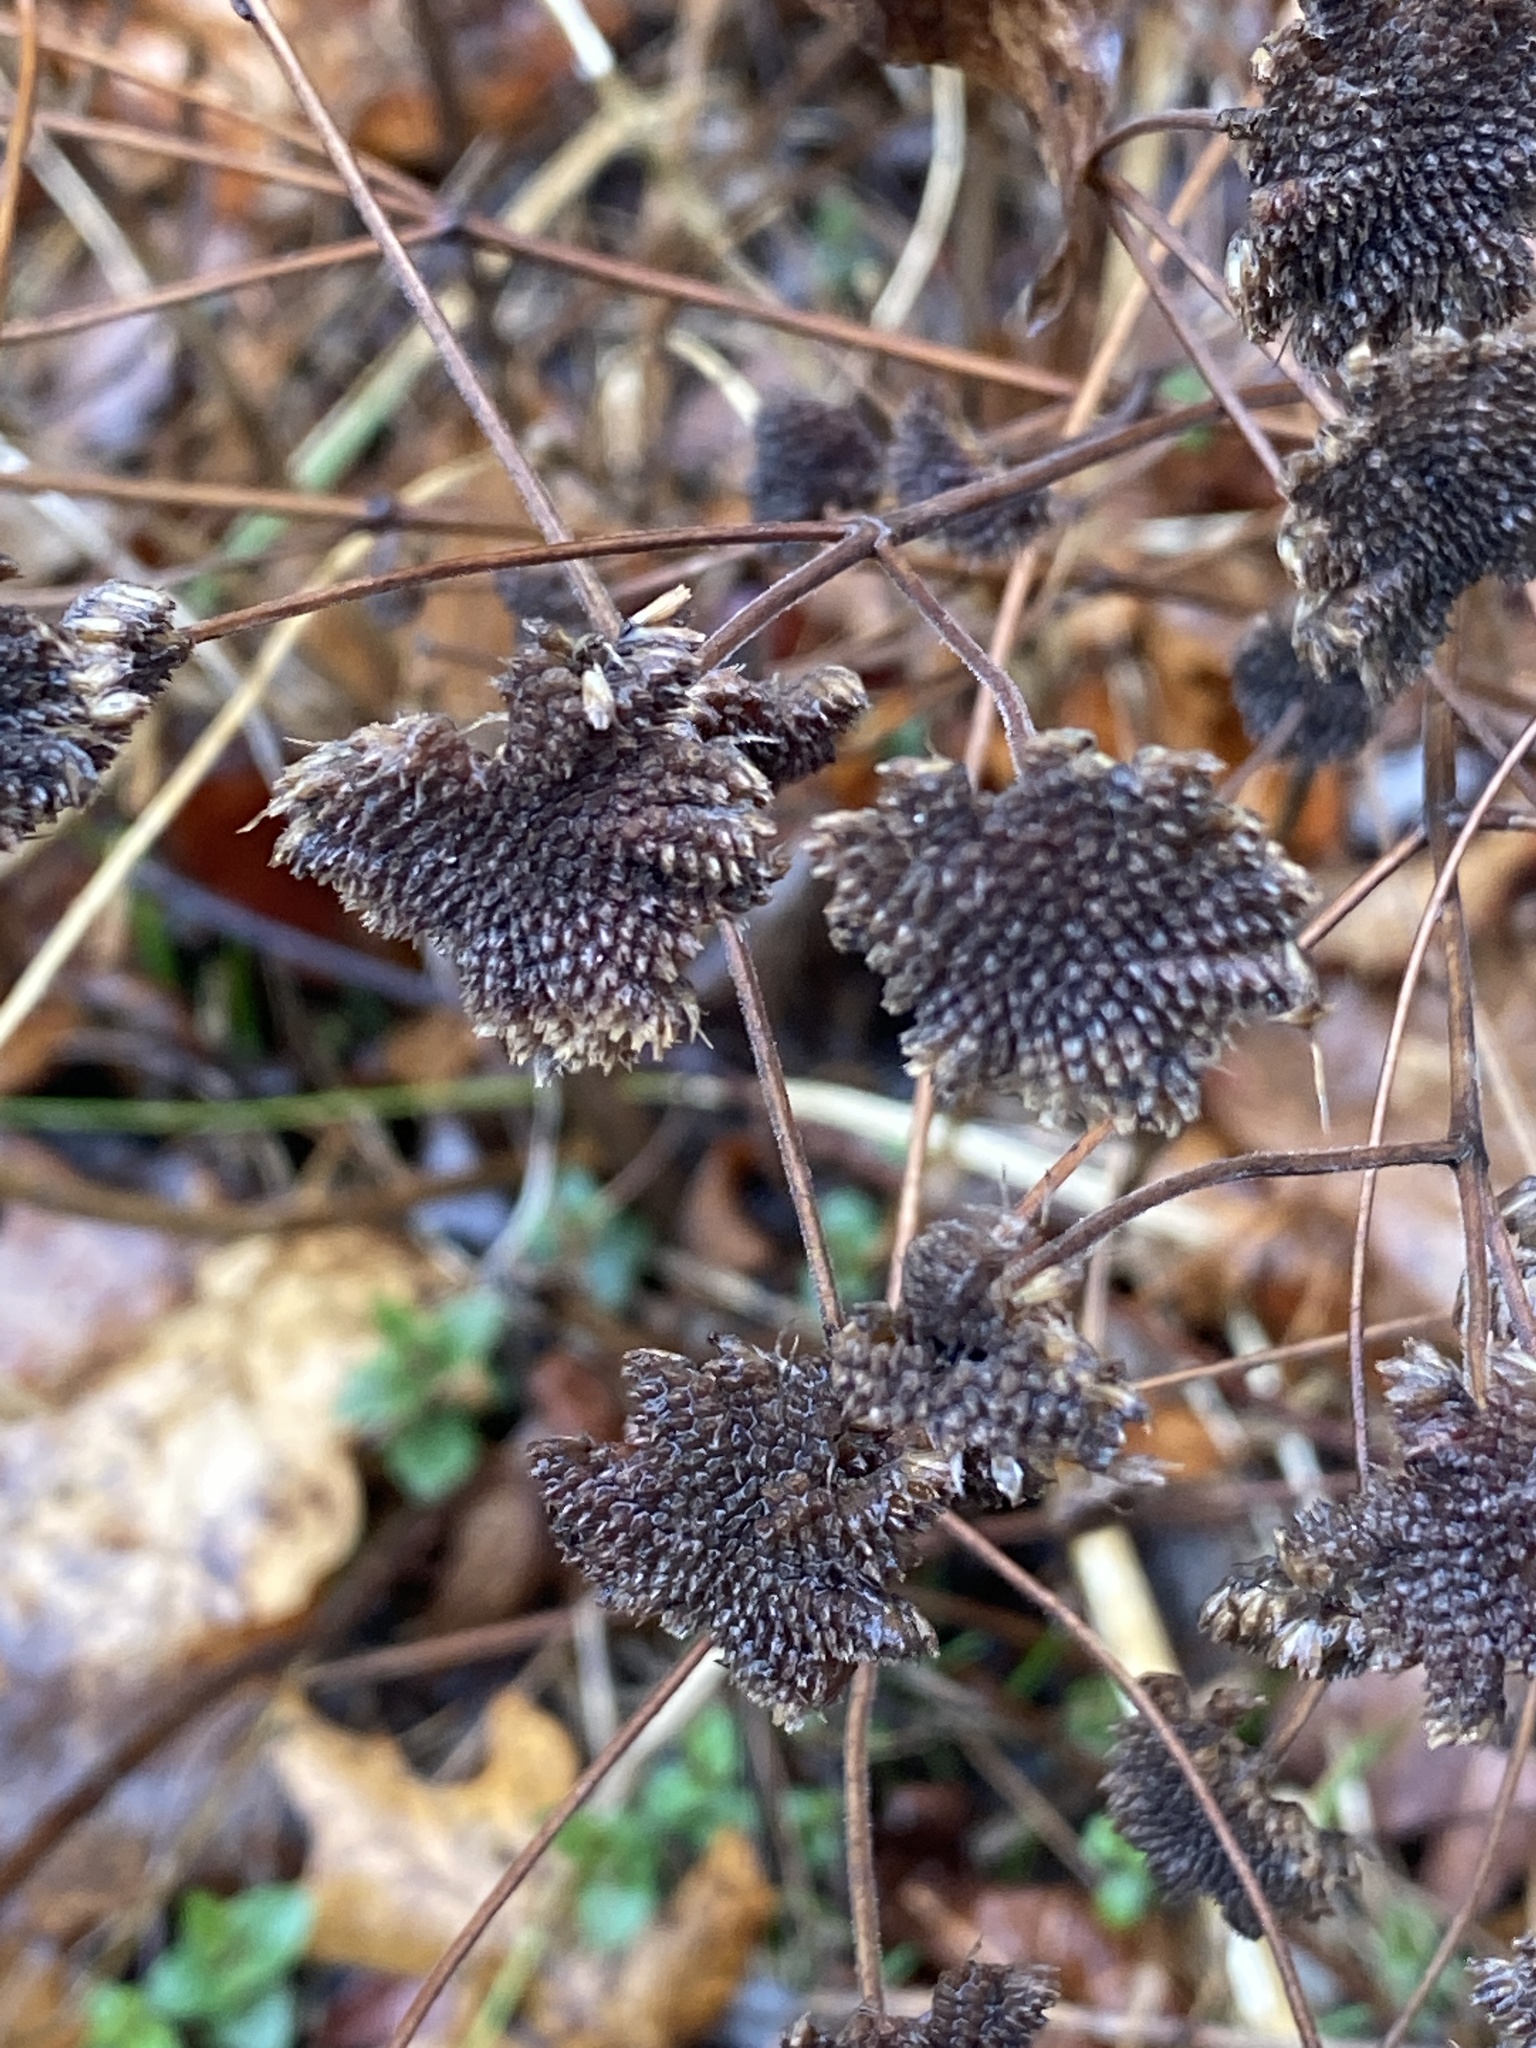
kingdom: Plantae
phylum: Tracheophyta
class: Magnoliopsida
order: Lamiales
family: Lamiaceae
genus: Pycnanthemum
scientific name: Pycnanthemum muticum
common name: Blunt mountain-mint
